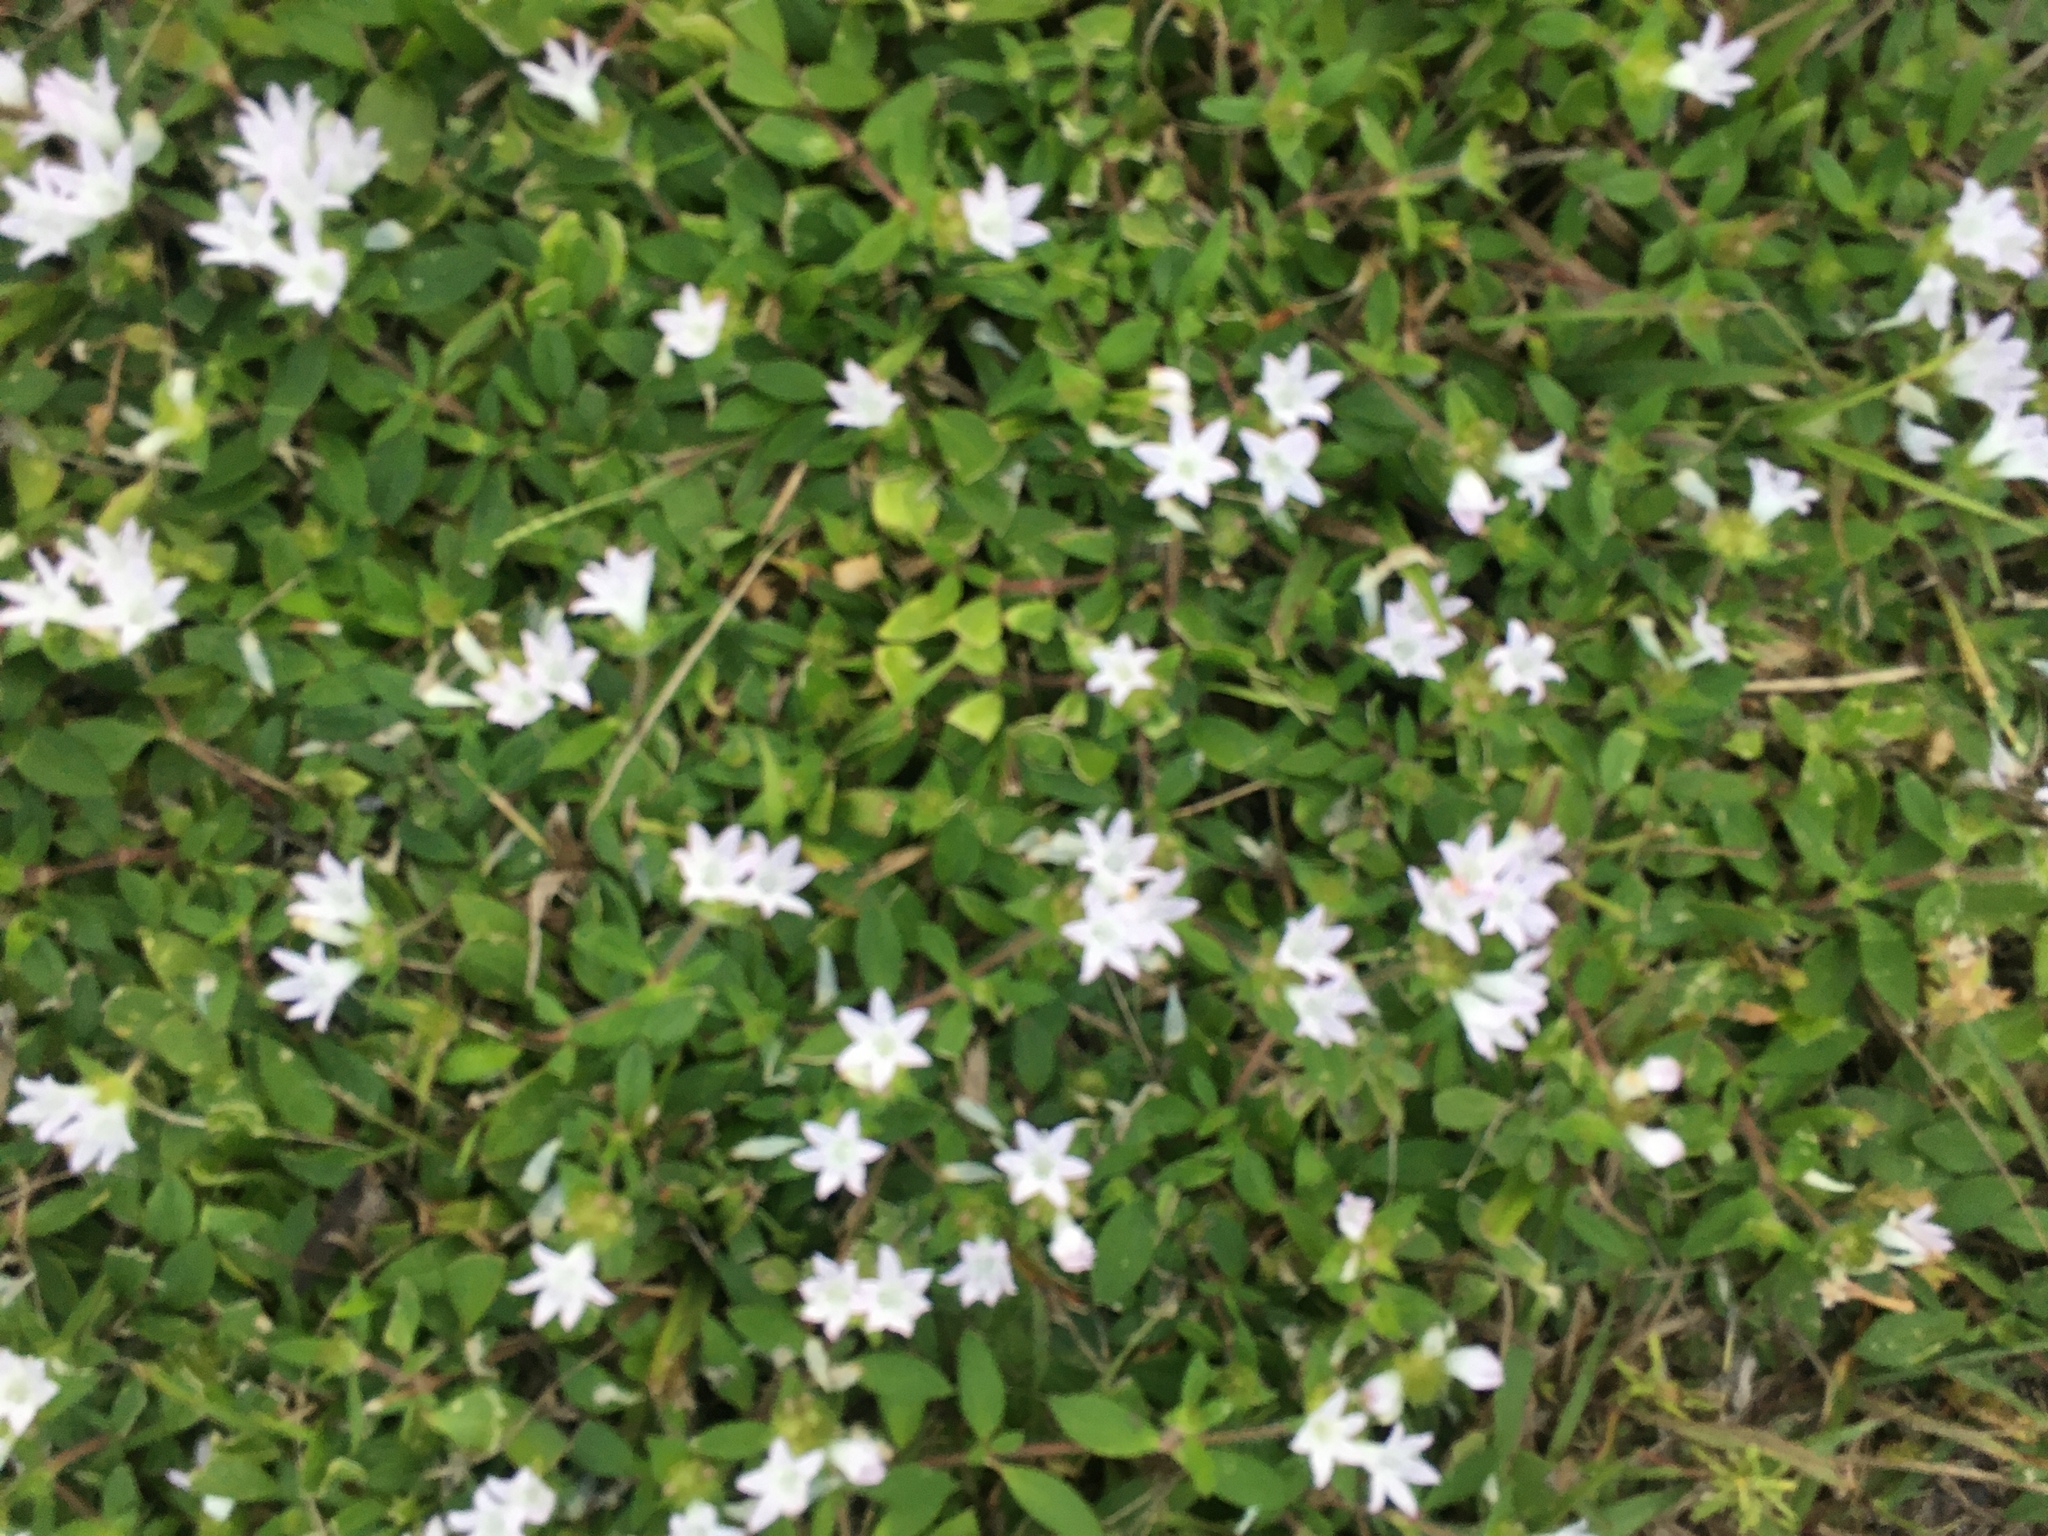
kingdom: Plantae
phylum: Tracheophyta
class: Magnoliopsida
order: Gentianales
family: Rubiaceae
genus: Richardia
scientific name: Richardia grandiflora
